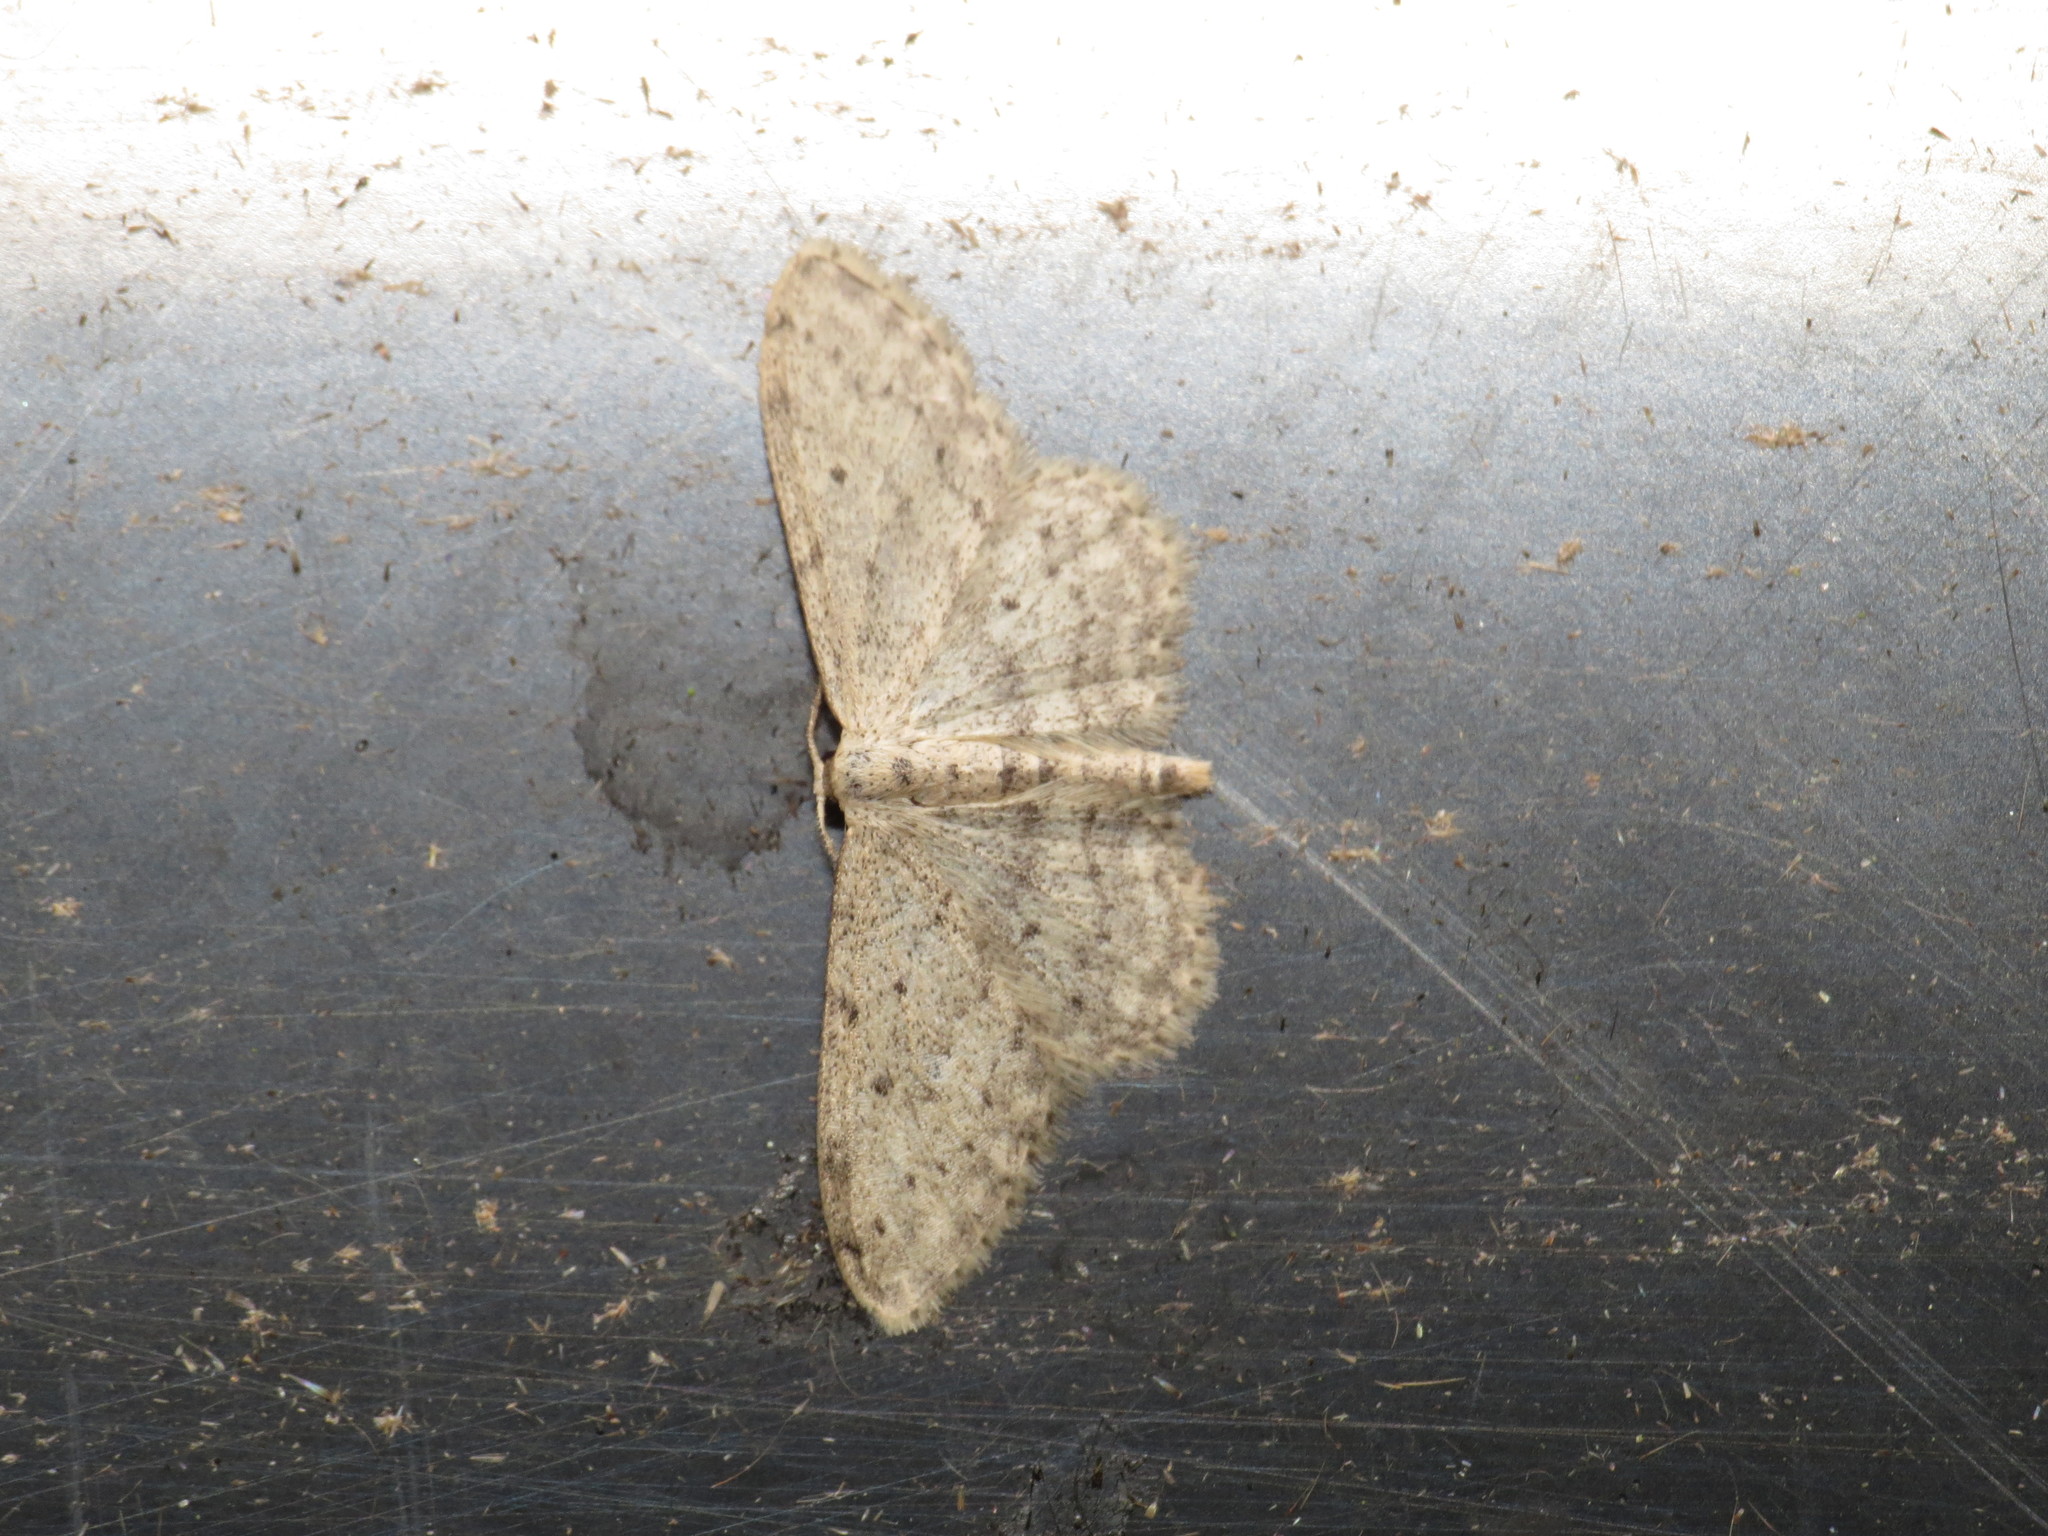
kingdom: Animalia
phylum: Arthropoda
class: Insecta
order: Lepidoptera
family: Geometridae
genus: Idaea
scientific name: Idaea seriata
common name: Small dusty wave
